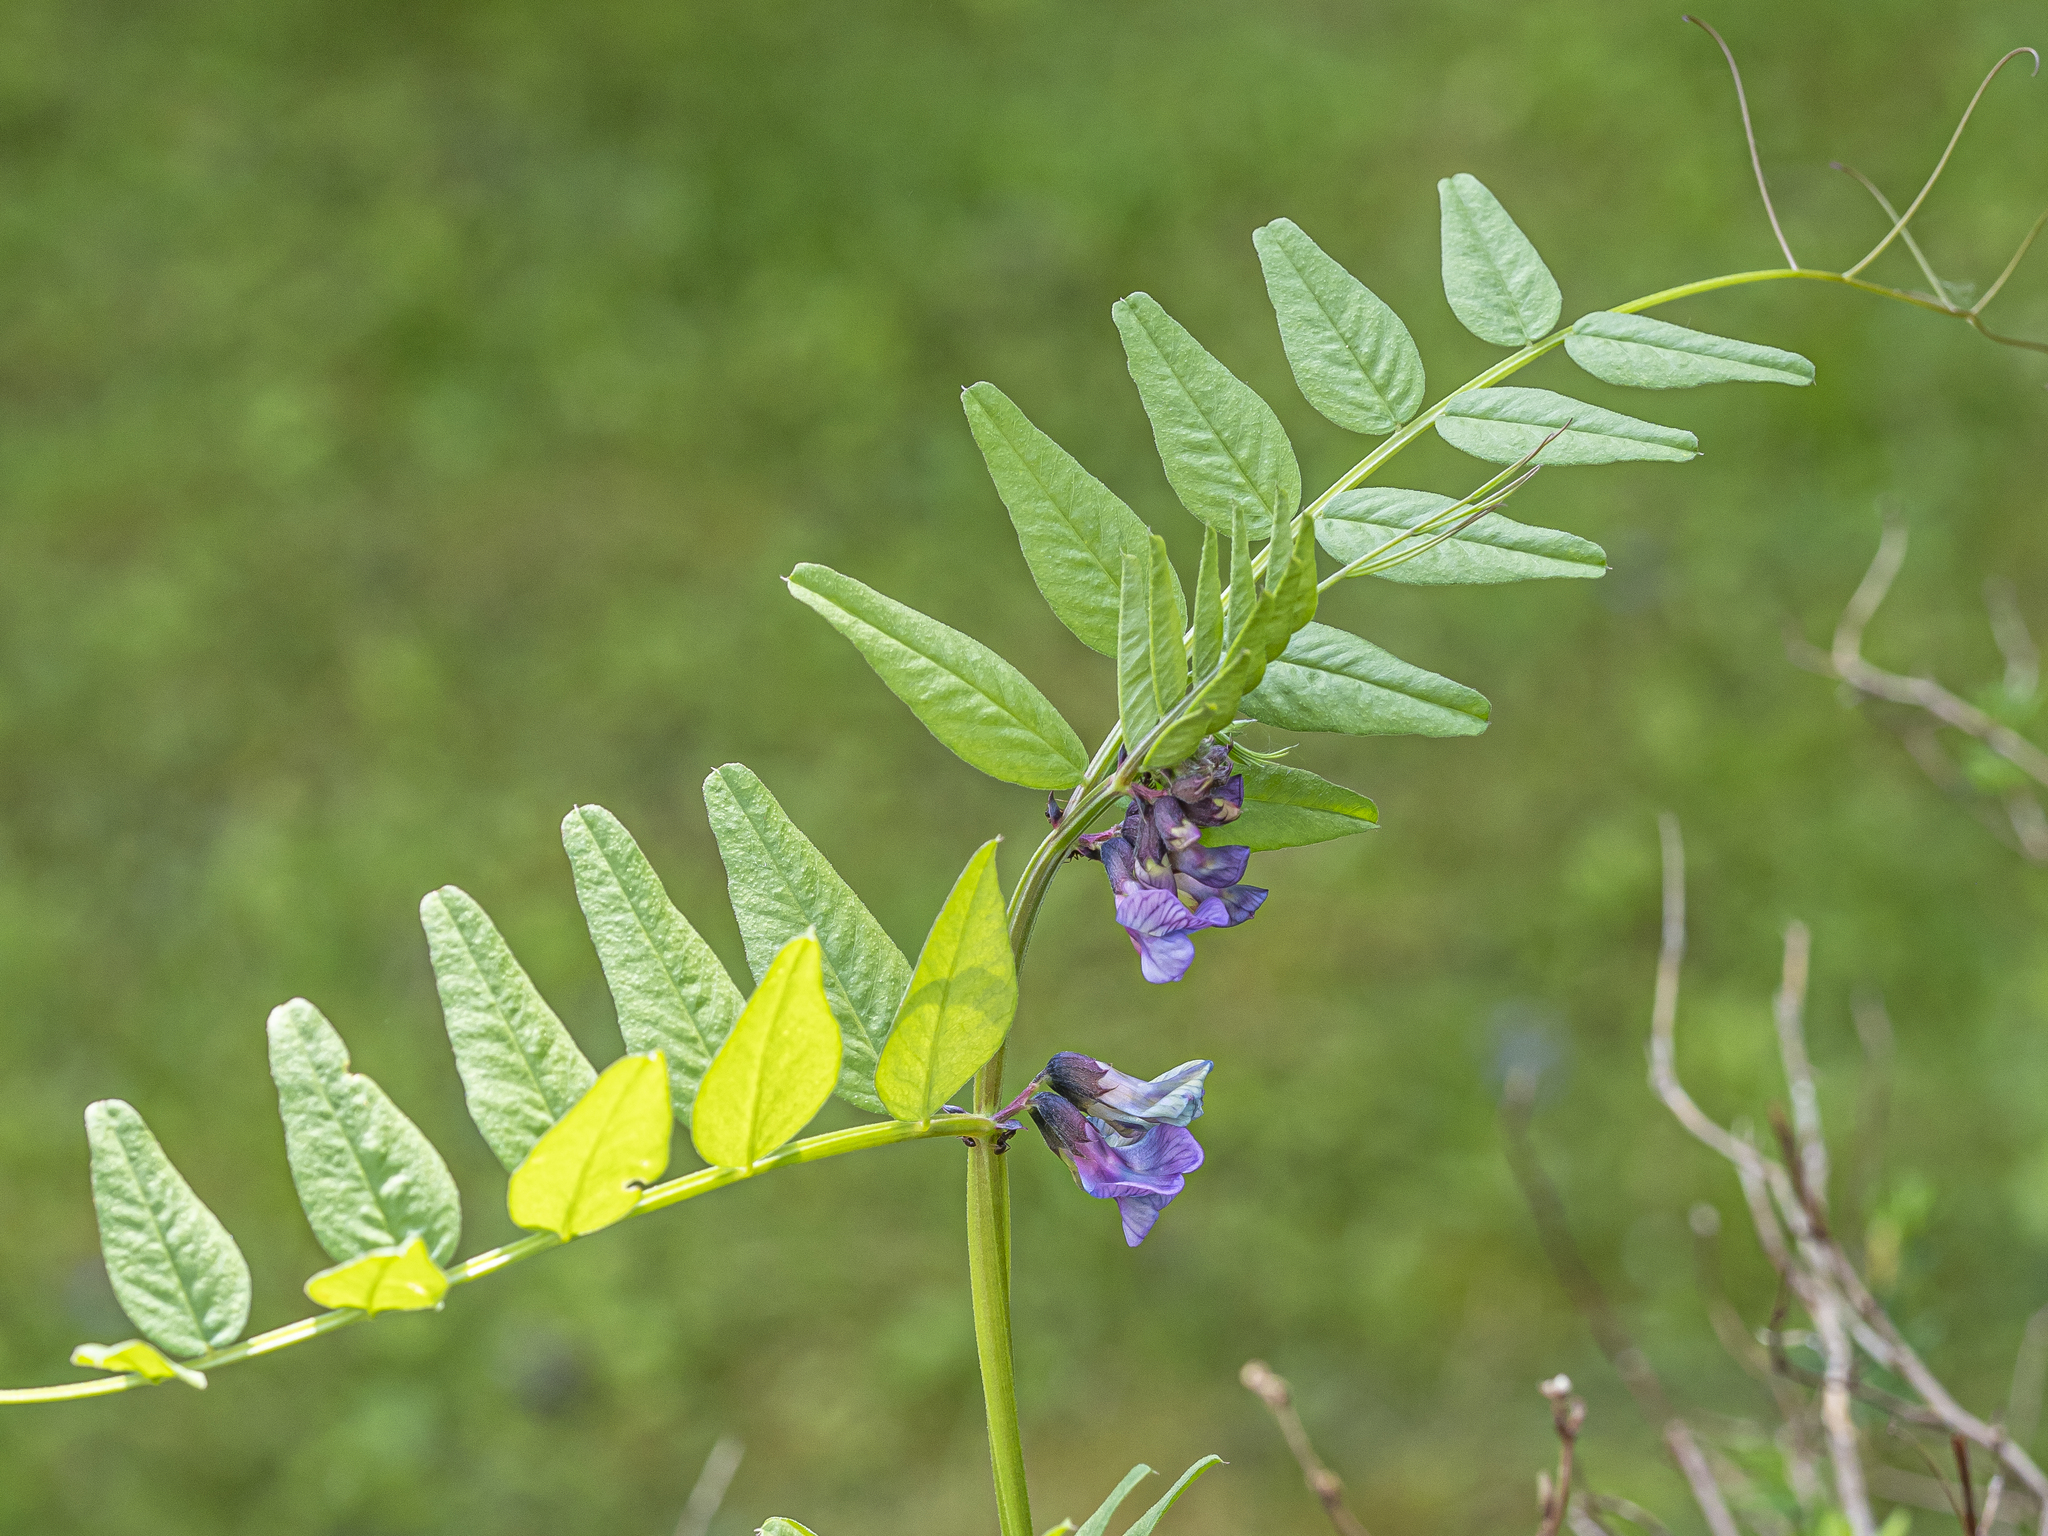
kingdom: Plantae
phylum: Tracheophyta
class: Magnoliopsida
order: Fabales
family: Fabaceae
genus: Vicia
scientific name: Vicia sepium
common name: Bush vetch
